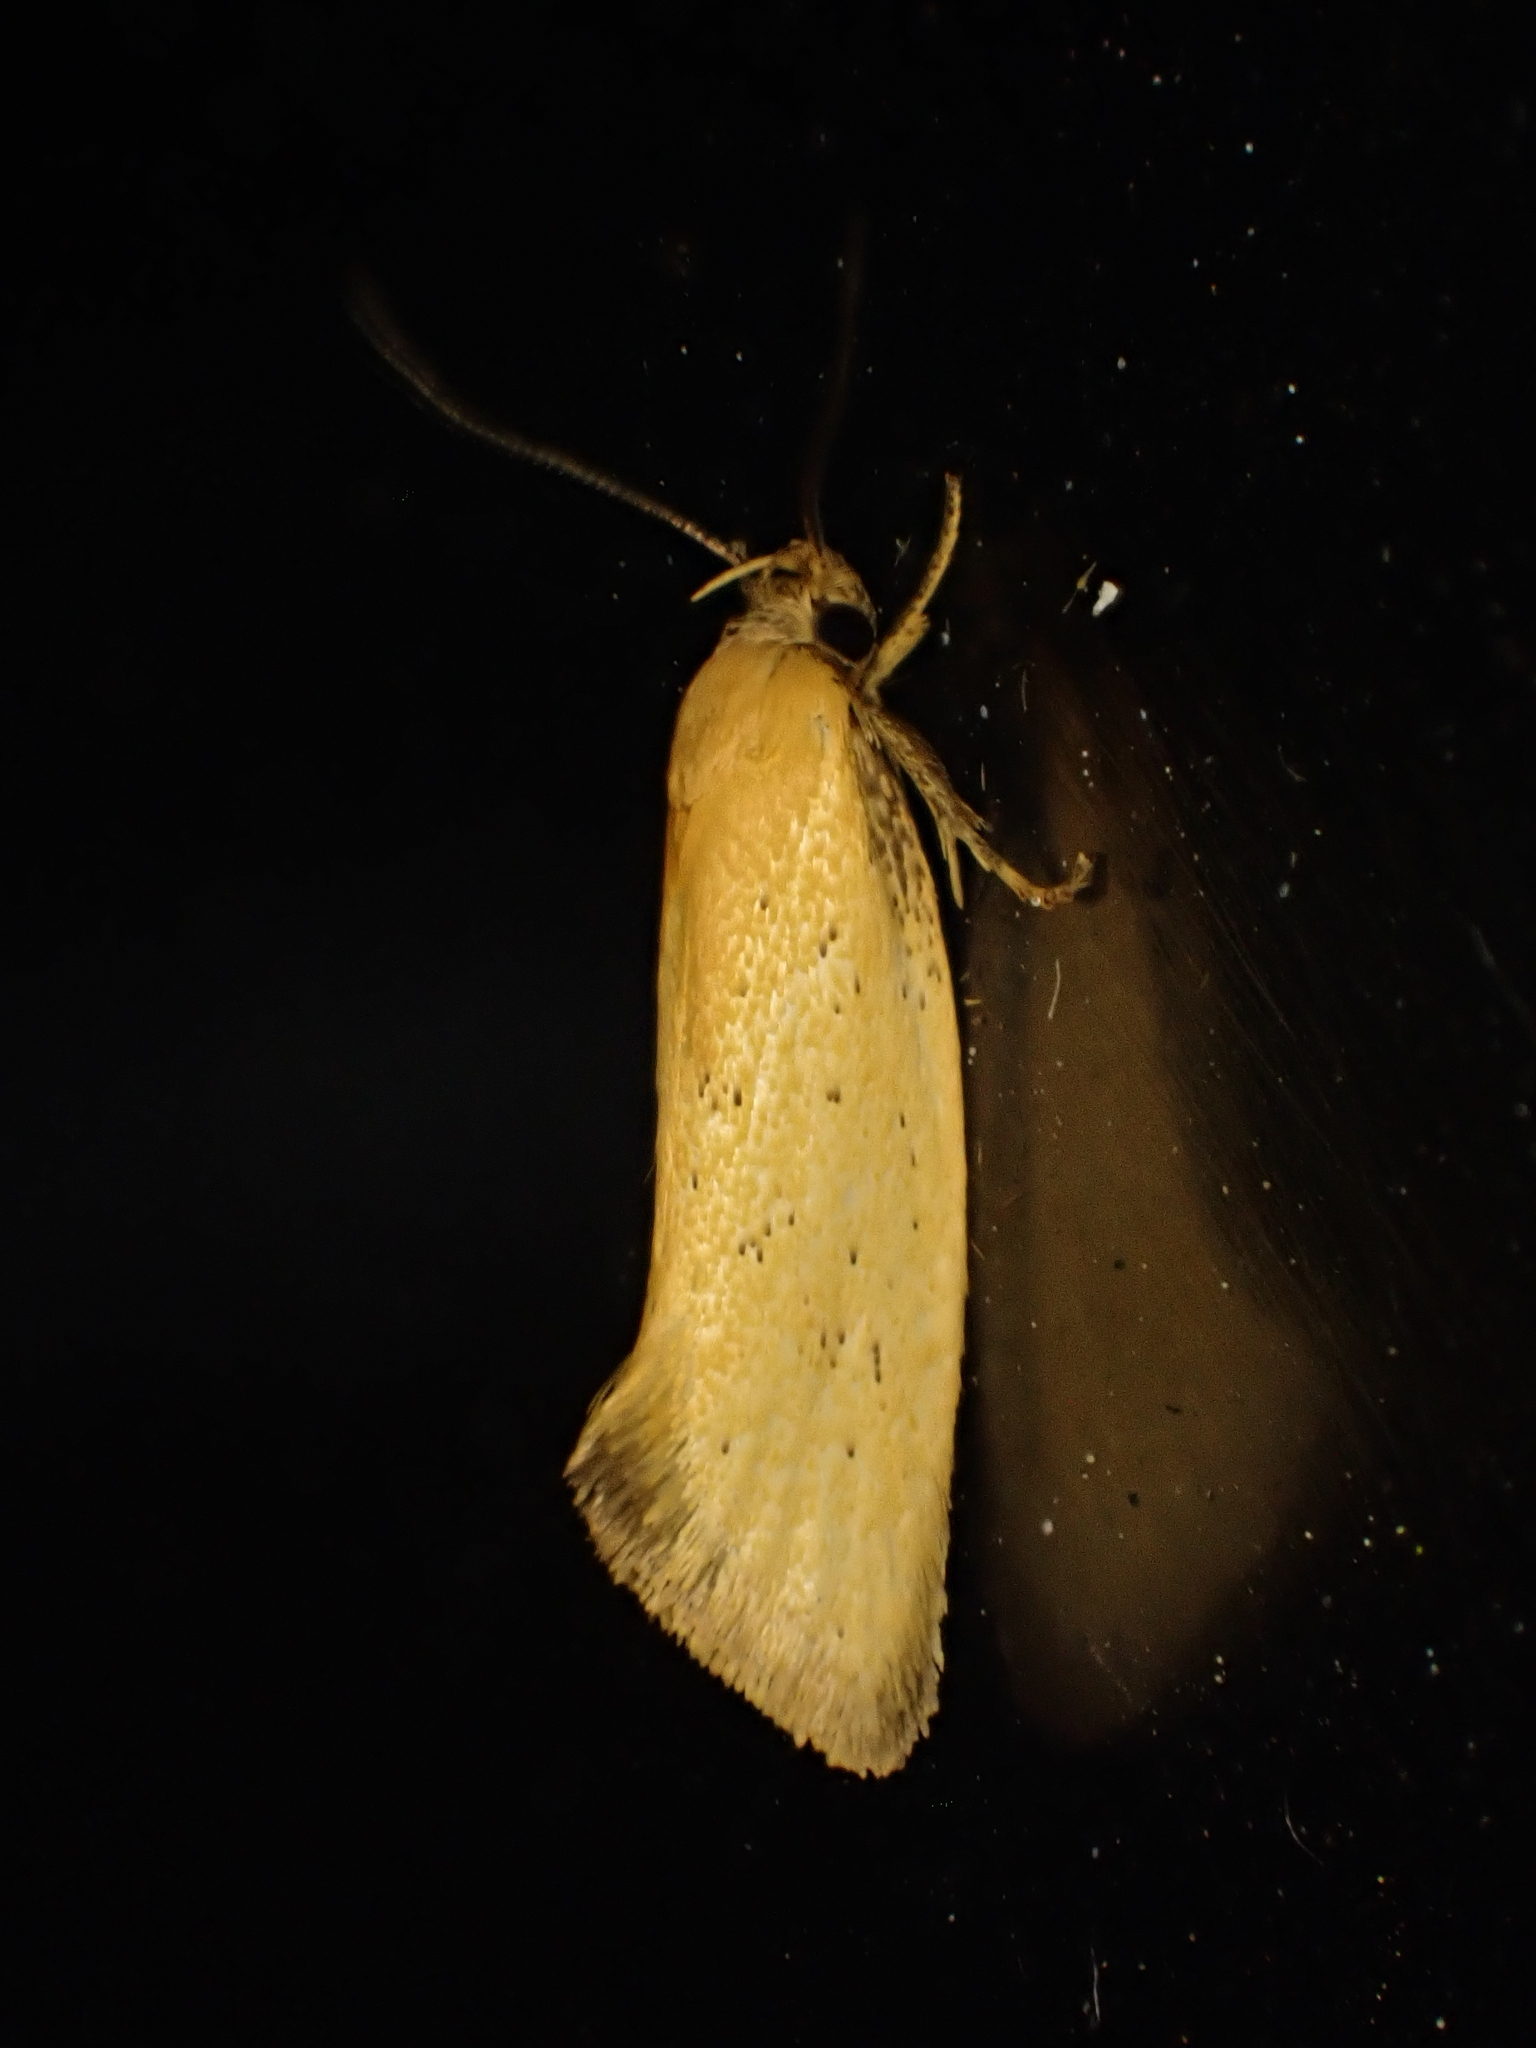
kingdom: Animalia
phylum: Arthropoda
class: Insecta
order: Lepidoptera
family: Oecophoridae
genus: Tingena
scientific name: Tingena armigerella
